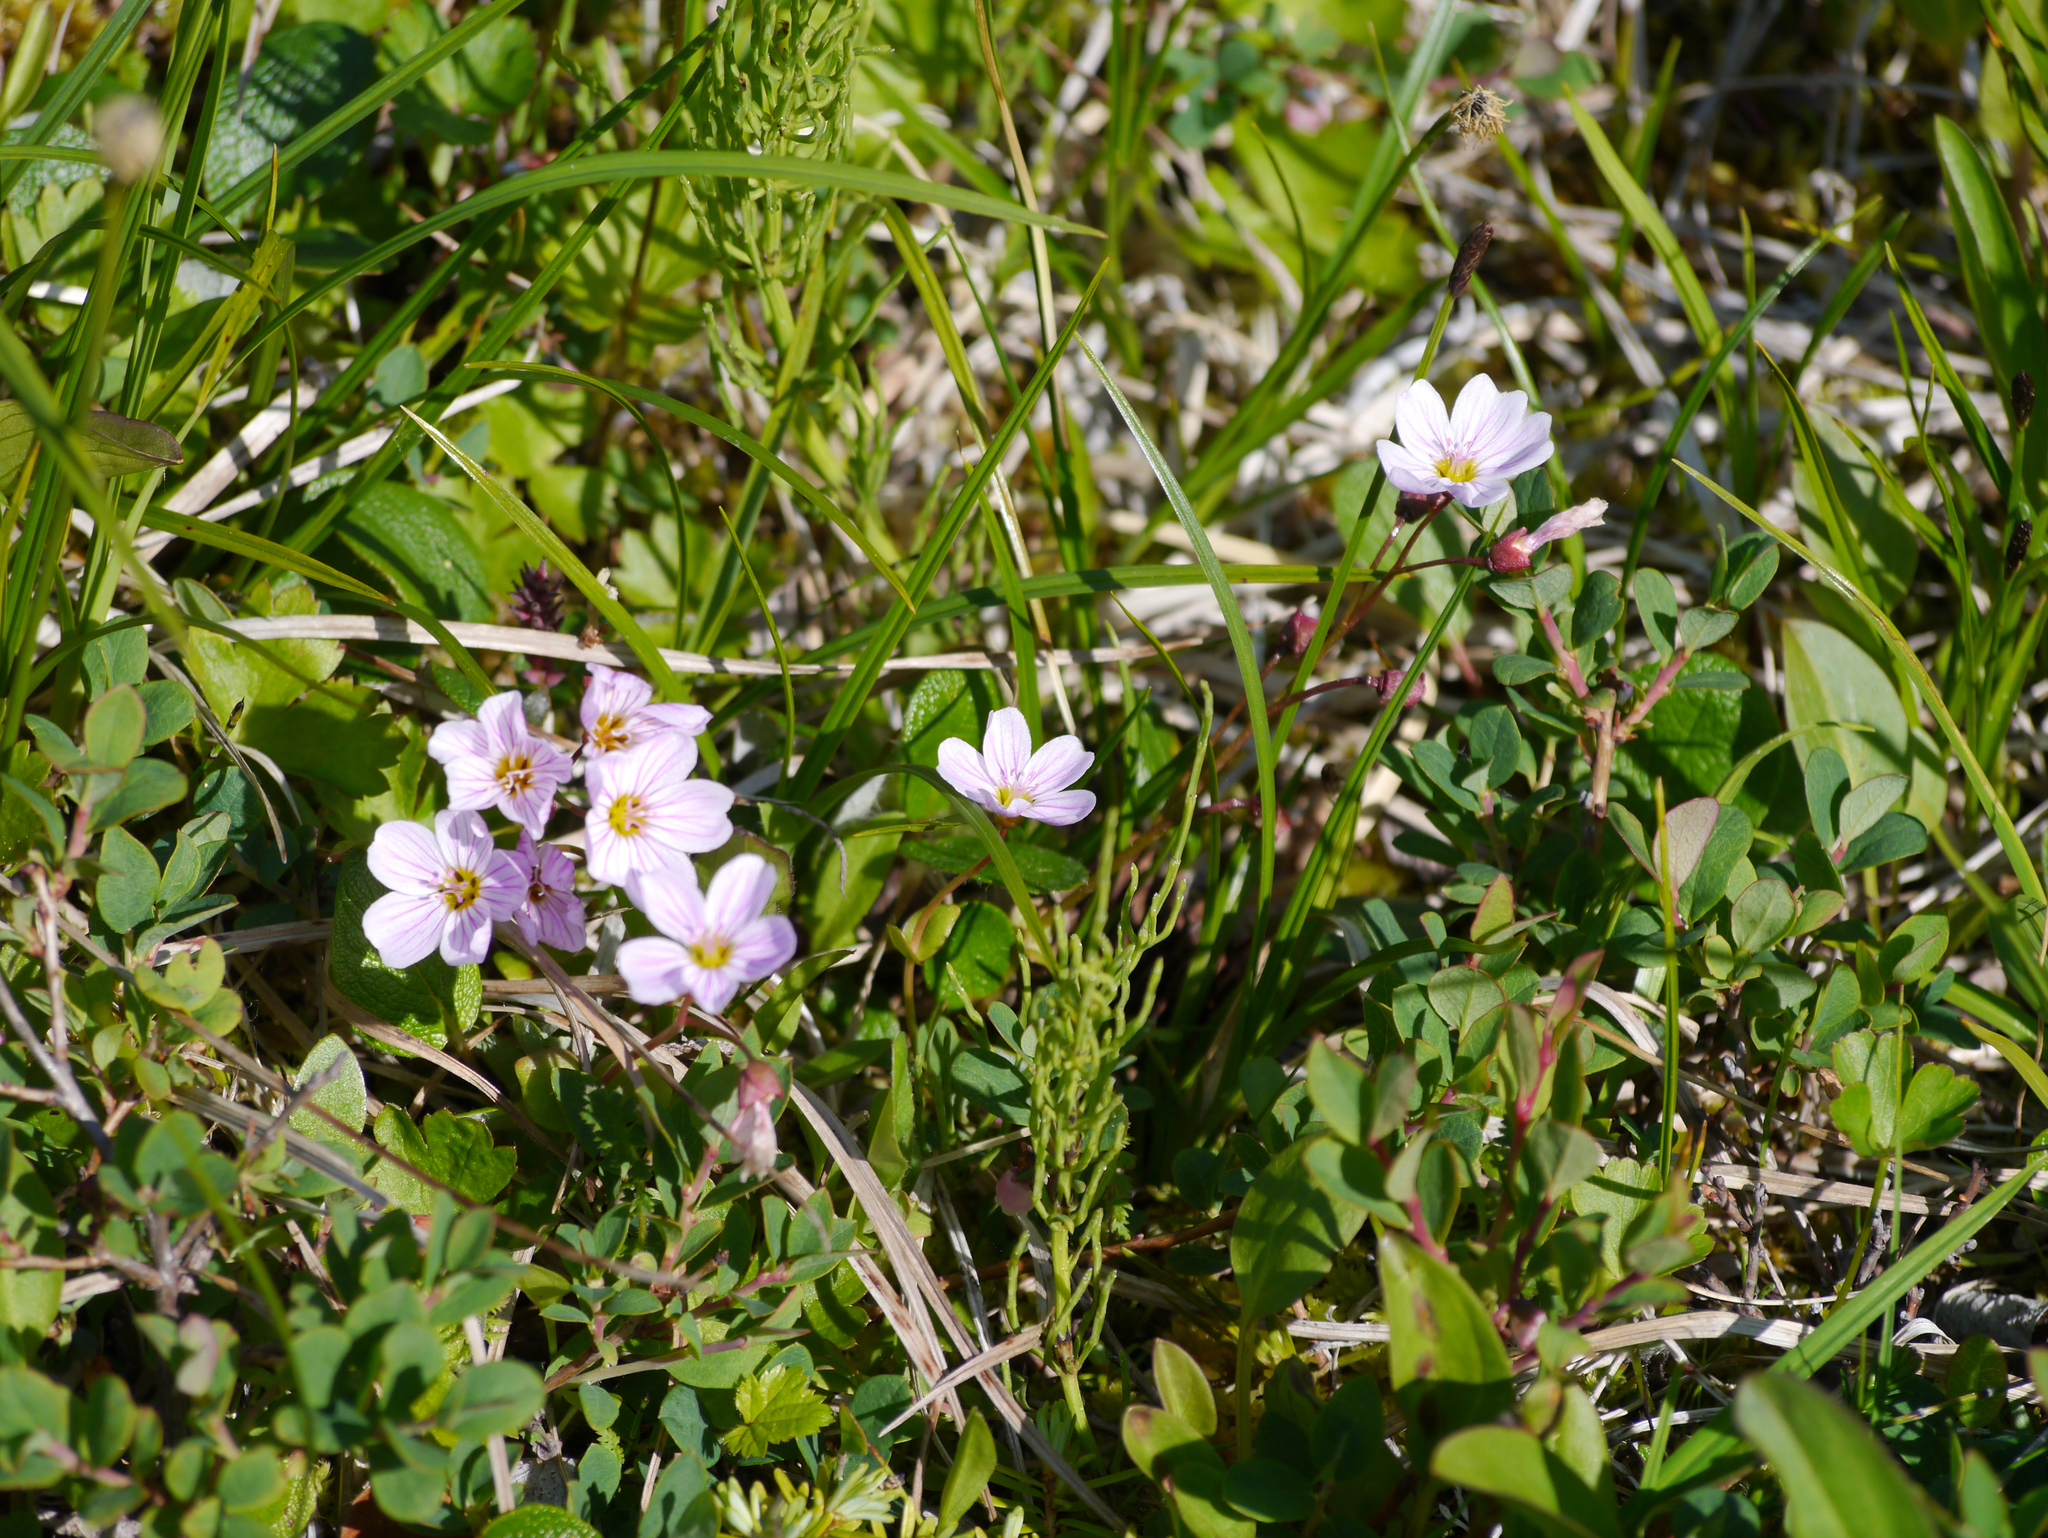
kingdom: Plantae
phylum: Tracheophyta
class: Magnoliopsida
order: Caryophyllales
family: Montiaceae
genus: Claytonia
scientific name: Claytonia sarmentosa
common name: Alaska spring beauty
